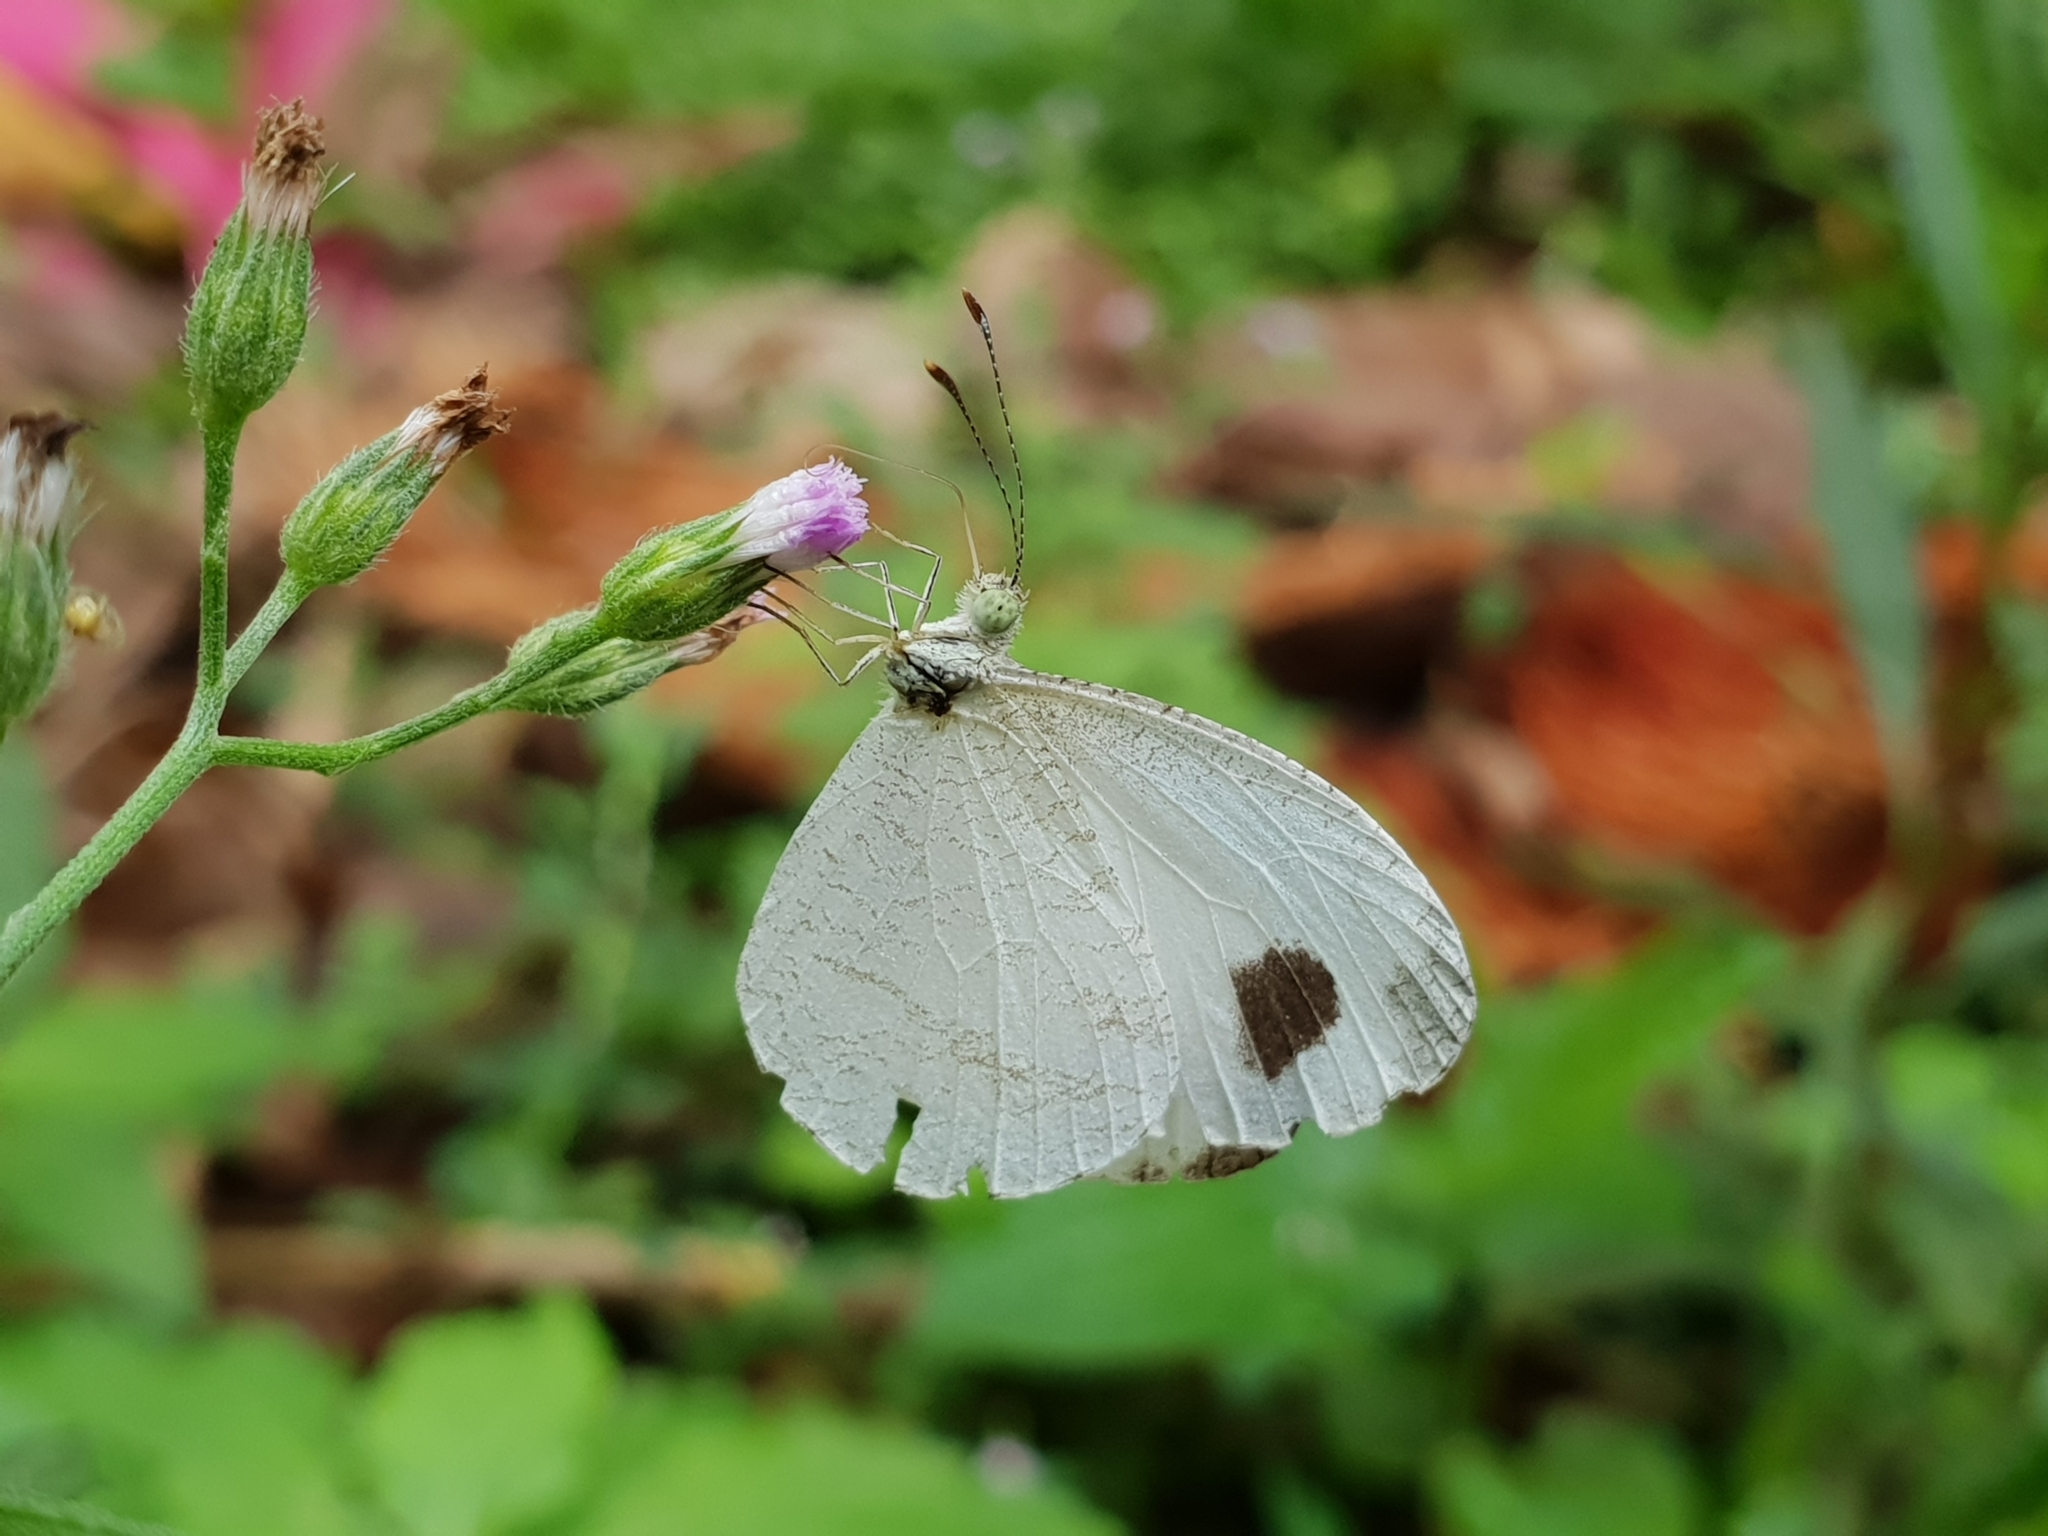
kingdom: Animalia
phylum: Arthropoda
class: Insecta
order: Lepidoptera
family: Pieridae
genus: Leptosia
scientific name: Leptosia nina
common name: Psyche
